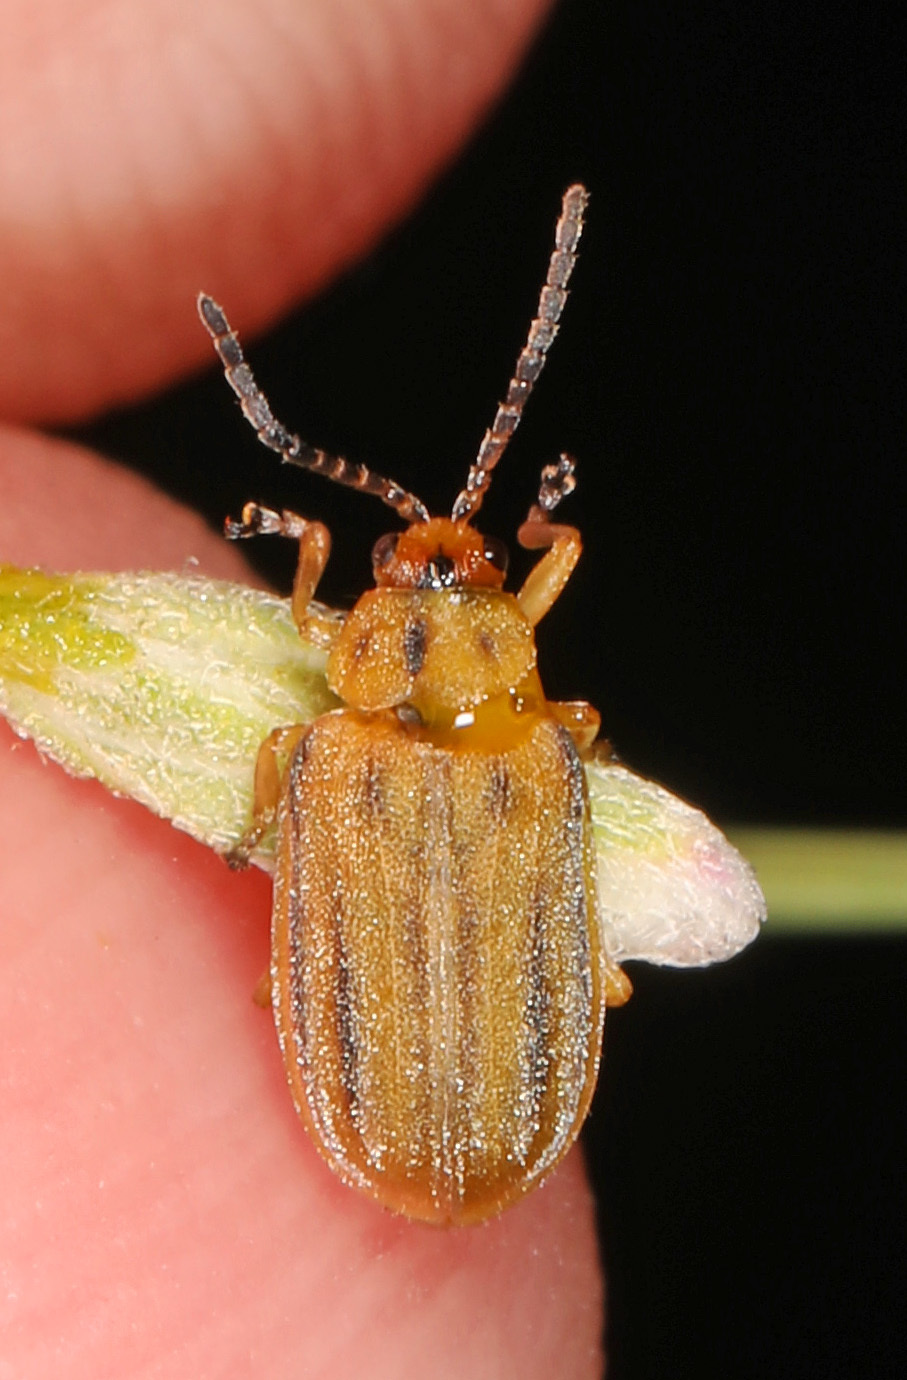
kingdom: Animalia
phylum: Arthropoda
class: Insecta
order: Coleoptera
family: Chrysomelidae
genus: Ophraella
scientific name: Ophraella notata
